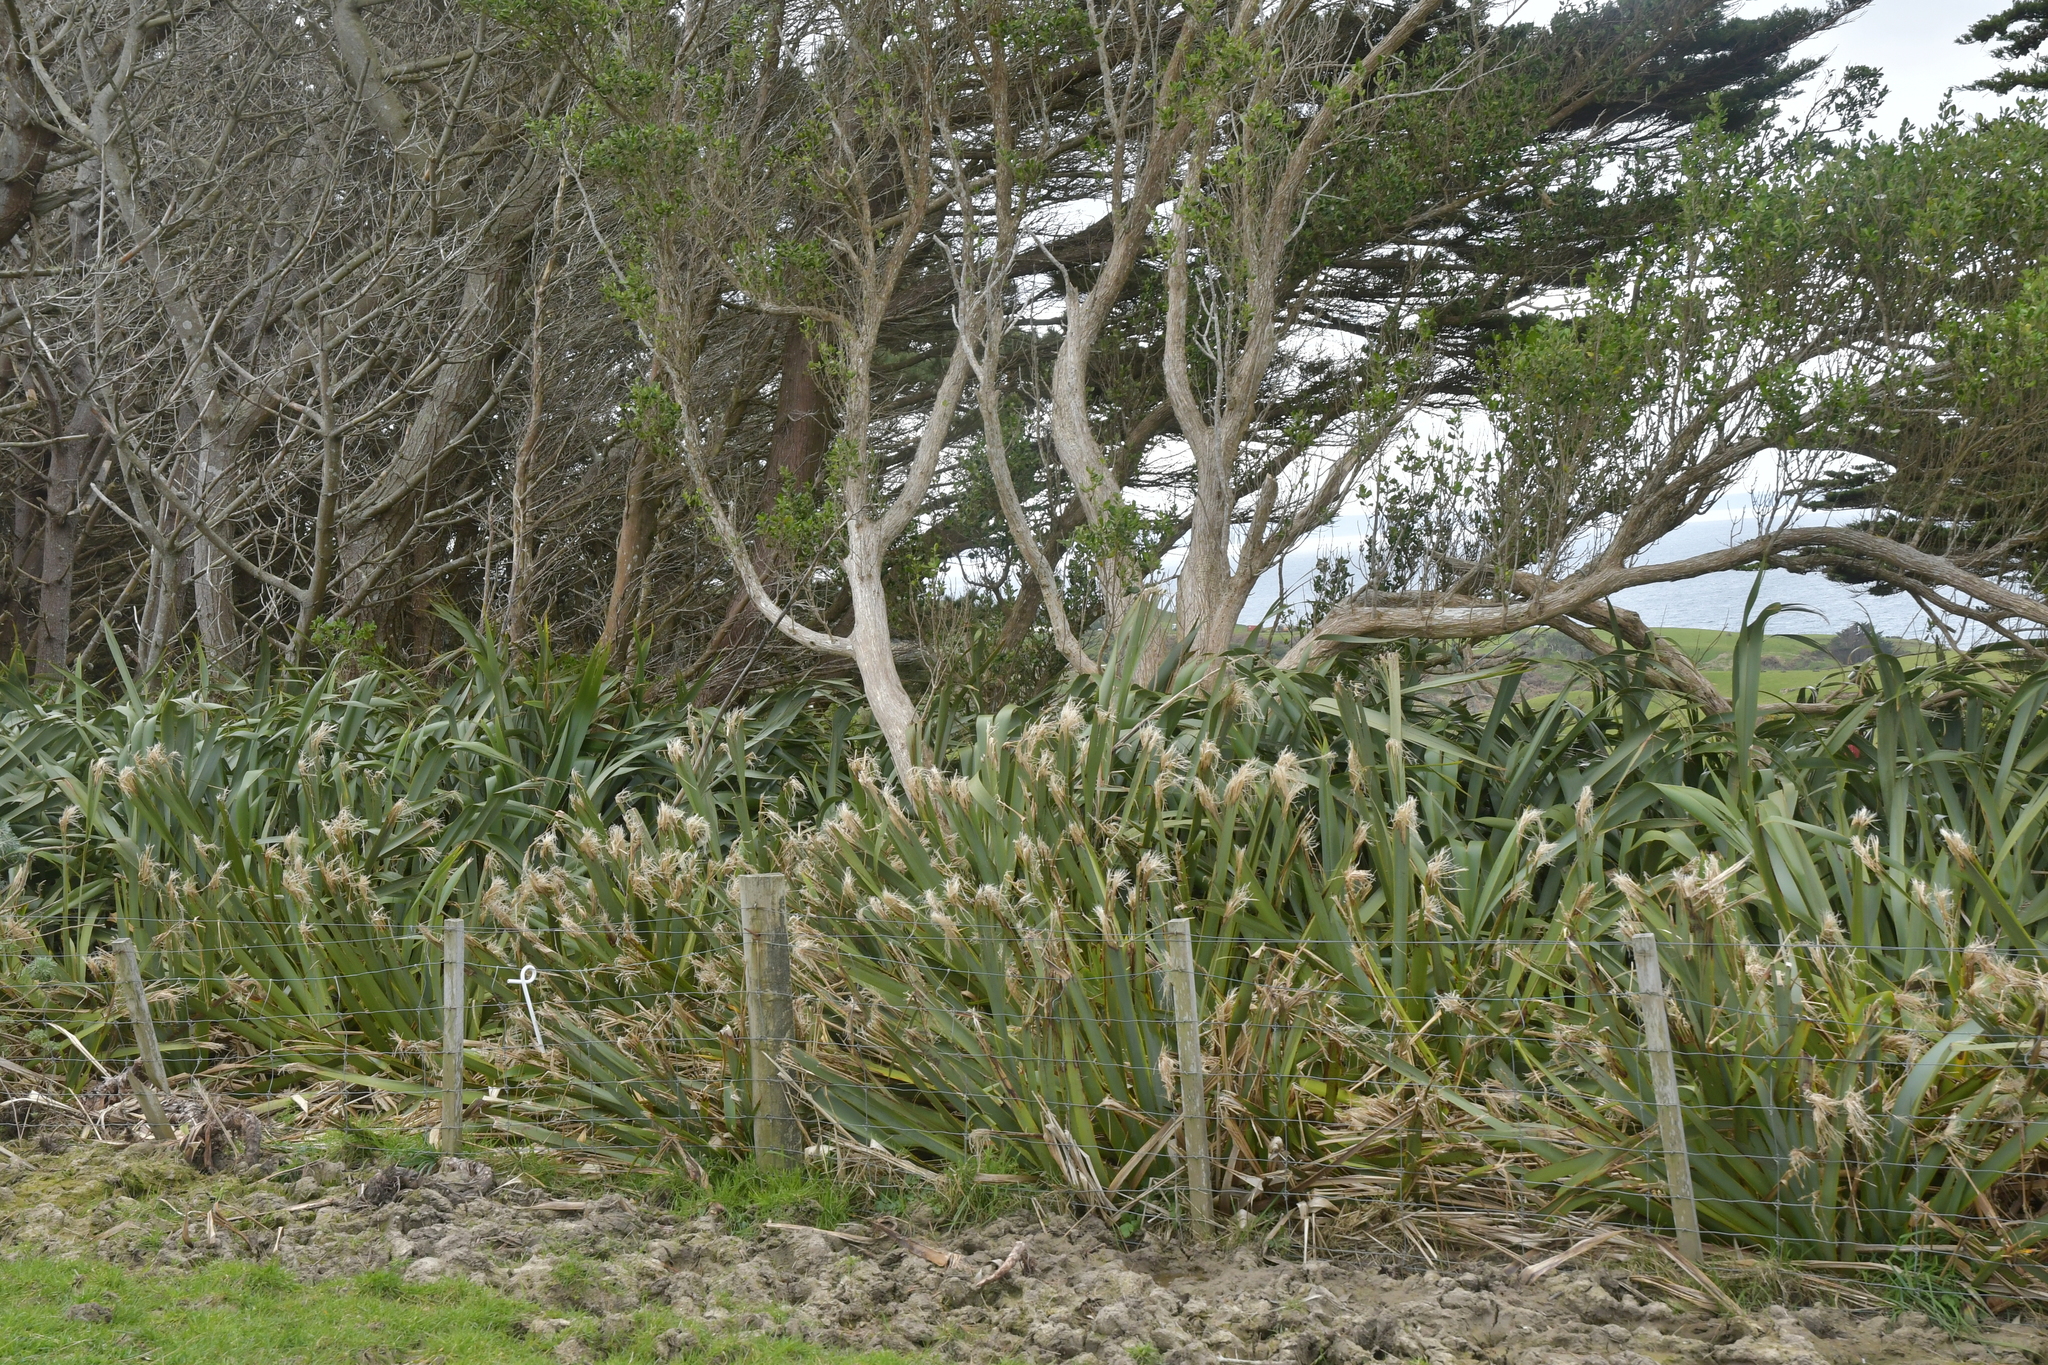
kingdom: Plantae
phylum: Tracheophyta
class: Liliopsida
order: Asparagales
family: Asphodelaceae
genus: Phormium
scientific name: Phormium tenax
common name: New zealand flax
